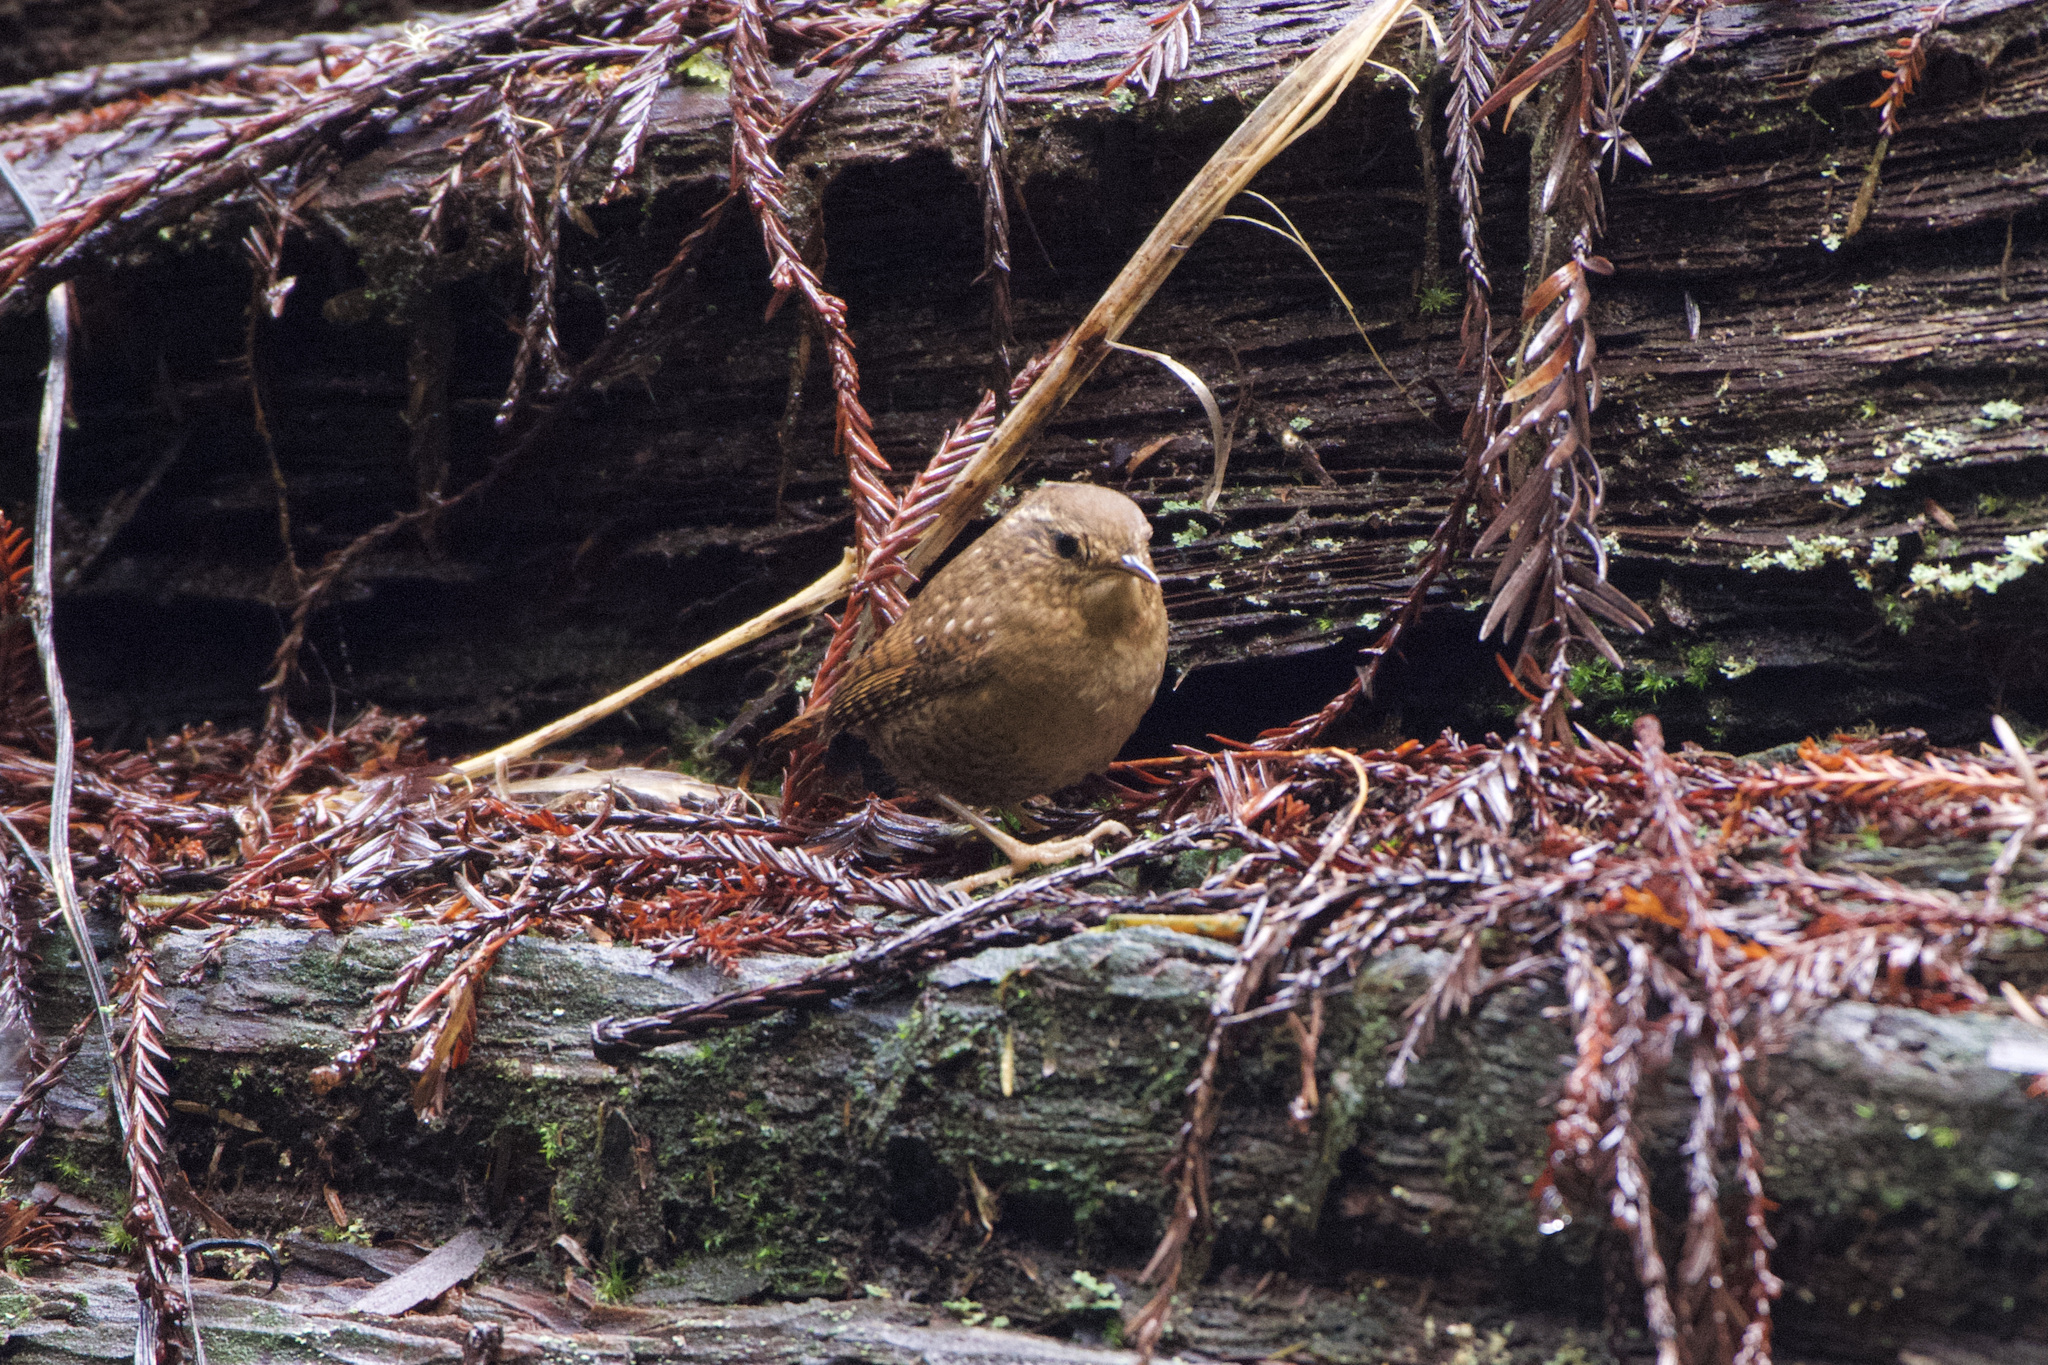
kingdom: Animalia
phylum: Chordata
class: Aves
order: Passeriformes
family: Troglodytidae
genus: Troglodytes
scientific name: Troglodytes pacificus
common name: Pacific wren
